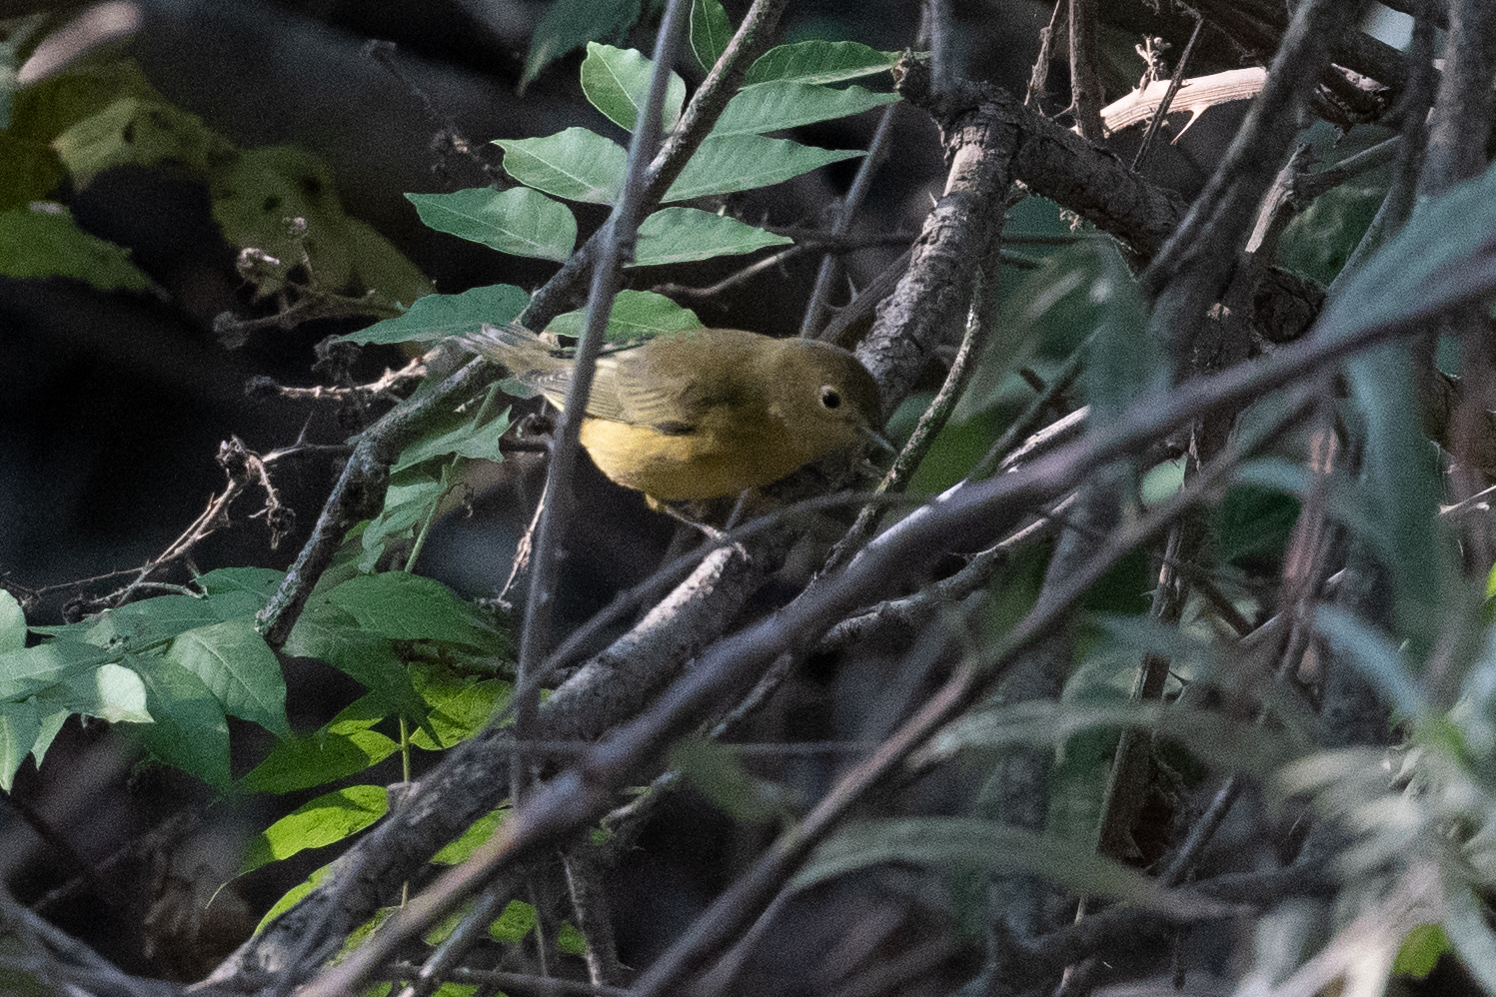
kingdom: Animalia
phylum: Chordata
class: Aves
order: Passeriformes
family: Parulidae
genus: Setophaga
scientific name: Setophaga petechia
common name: Yellow warbler
